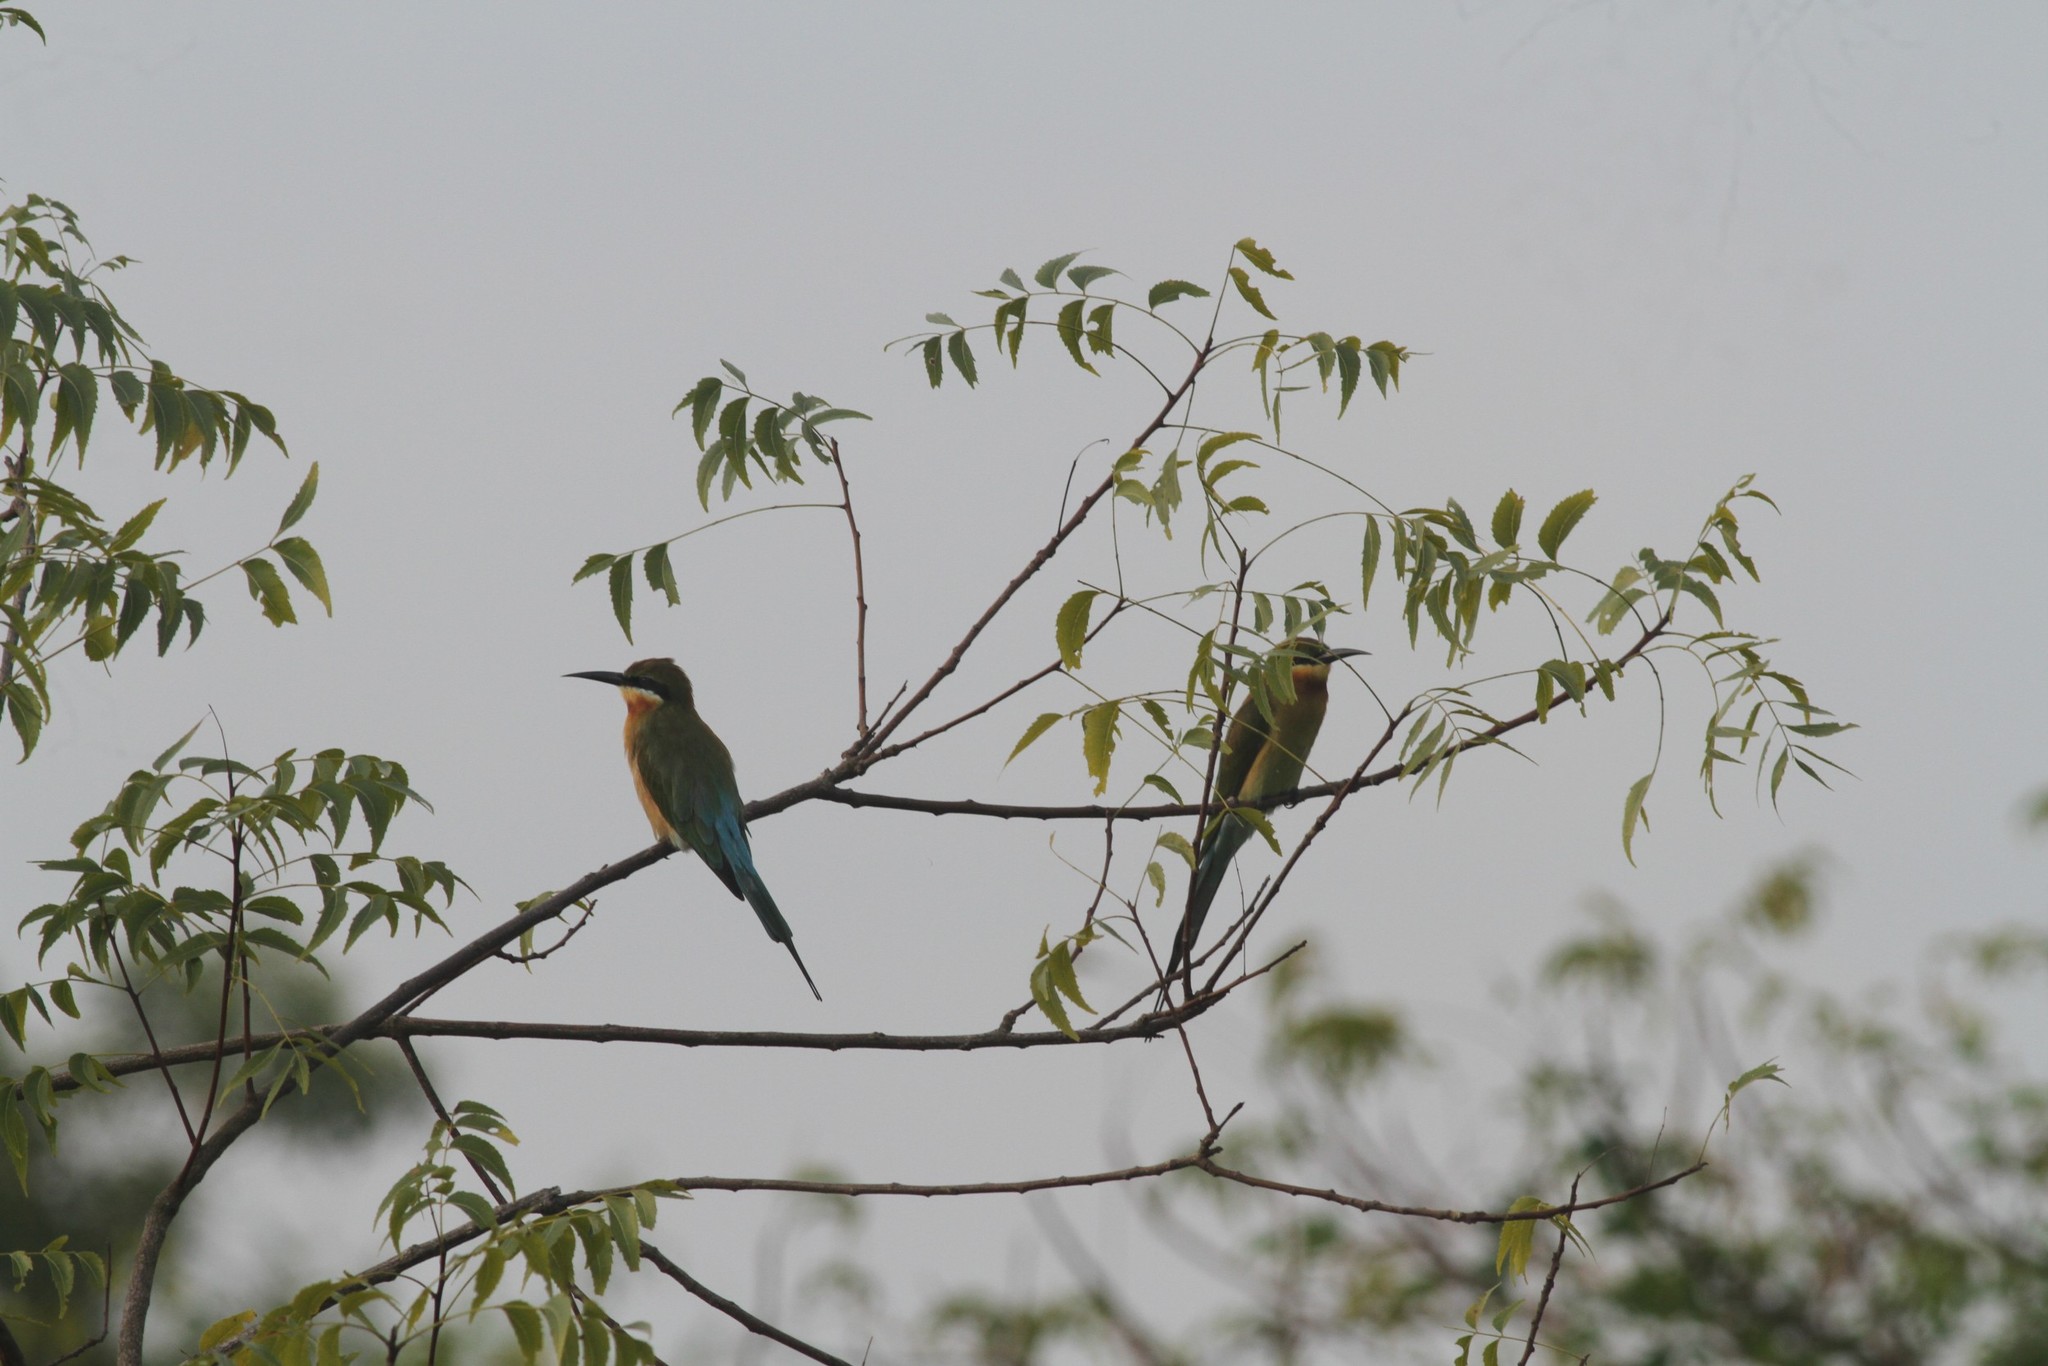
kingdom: Animalia
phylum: Chordata
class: Aves
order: Coraciiformes
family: Meropidae
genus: Merops
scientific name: Merops philippinus
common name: Blue-tailed bee-eater
